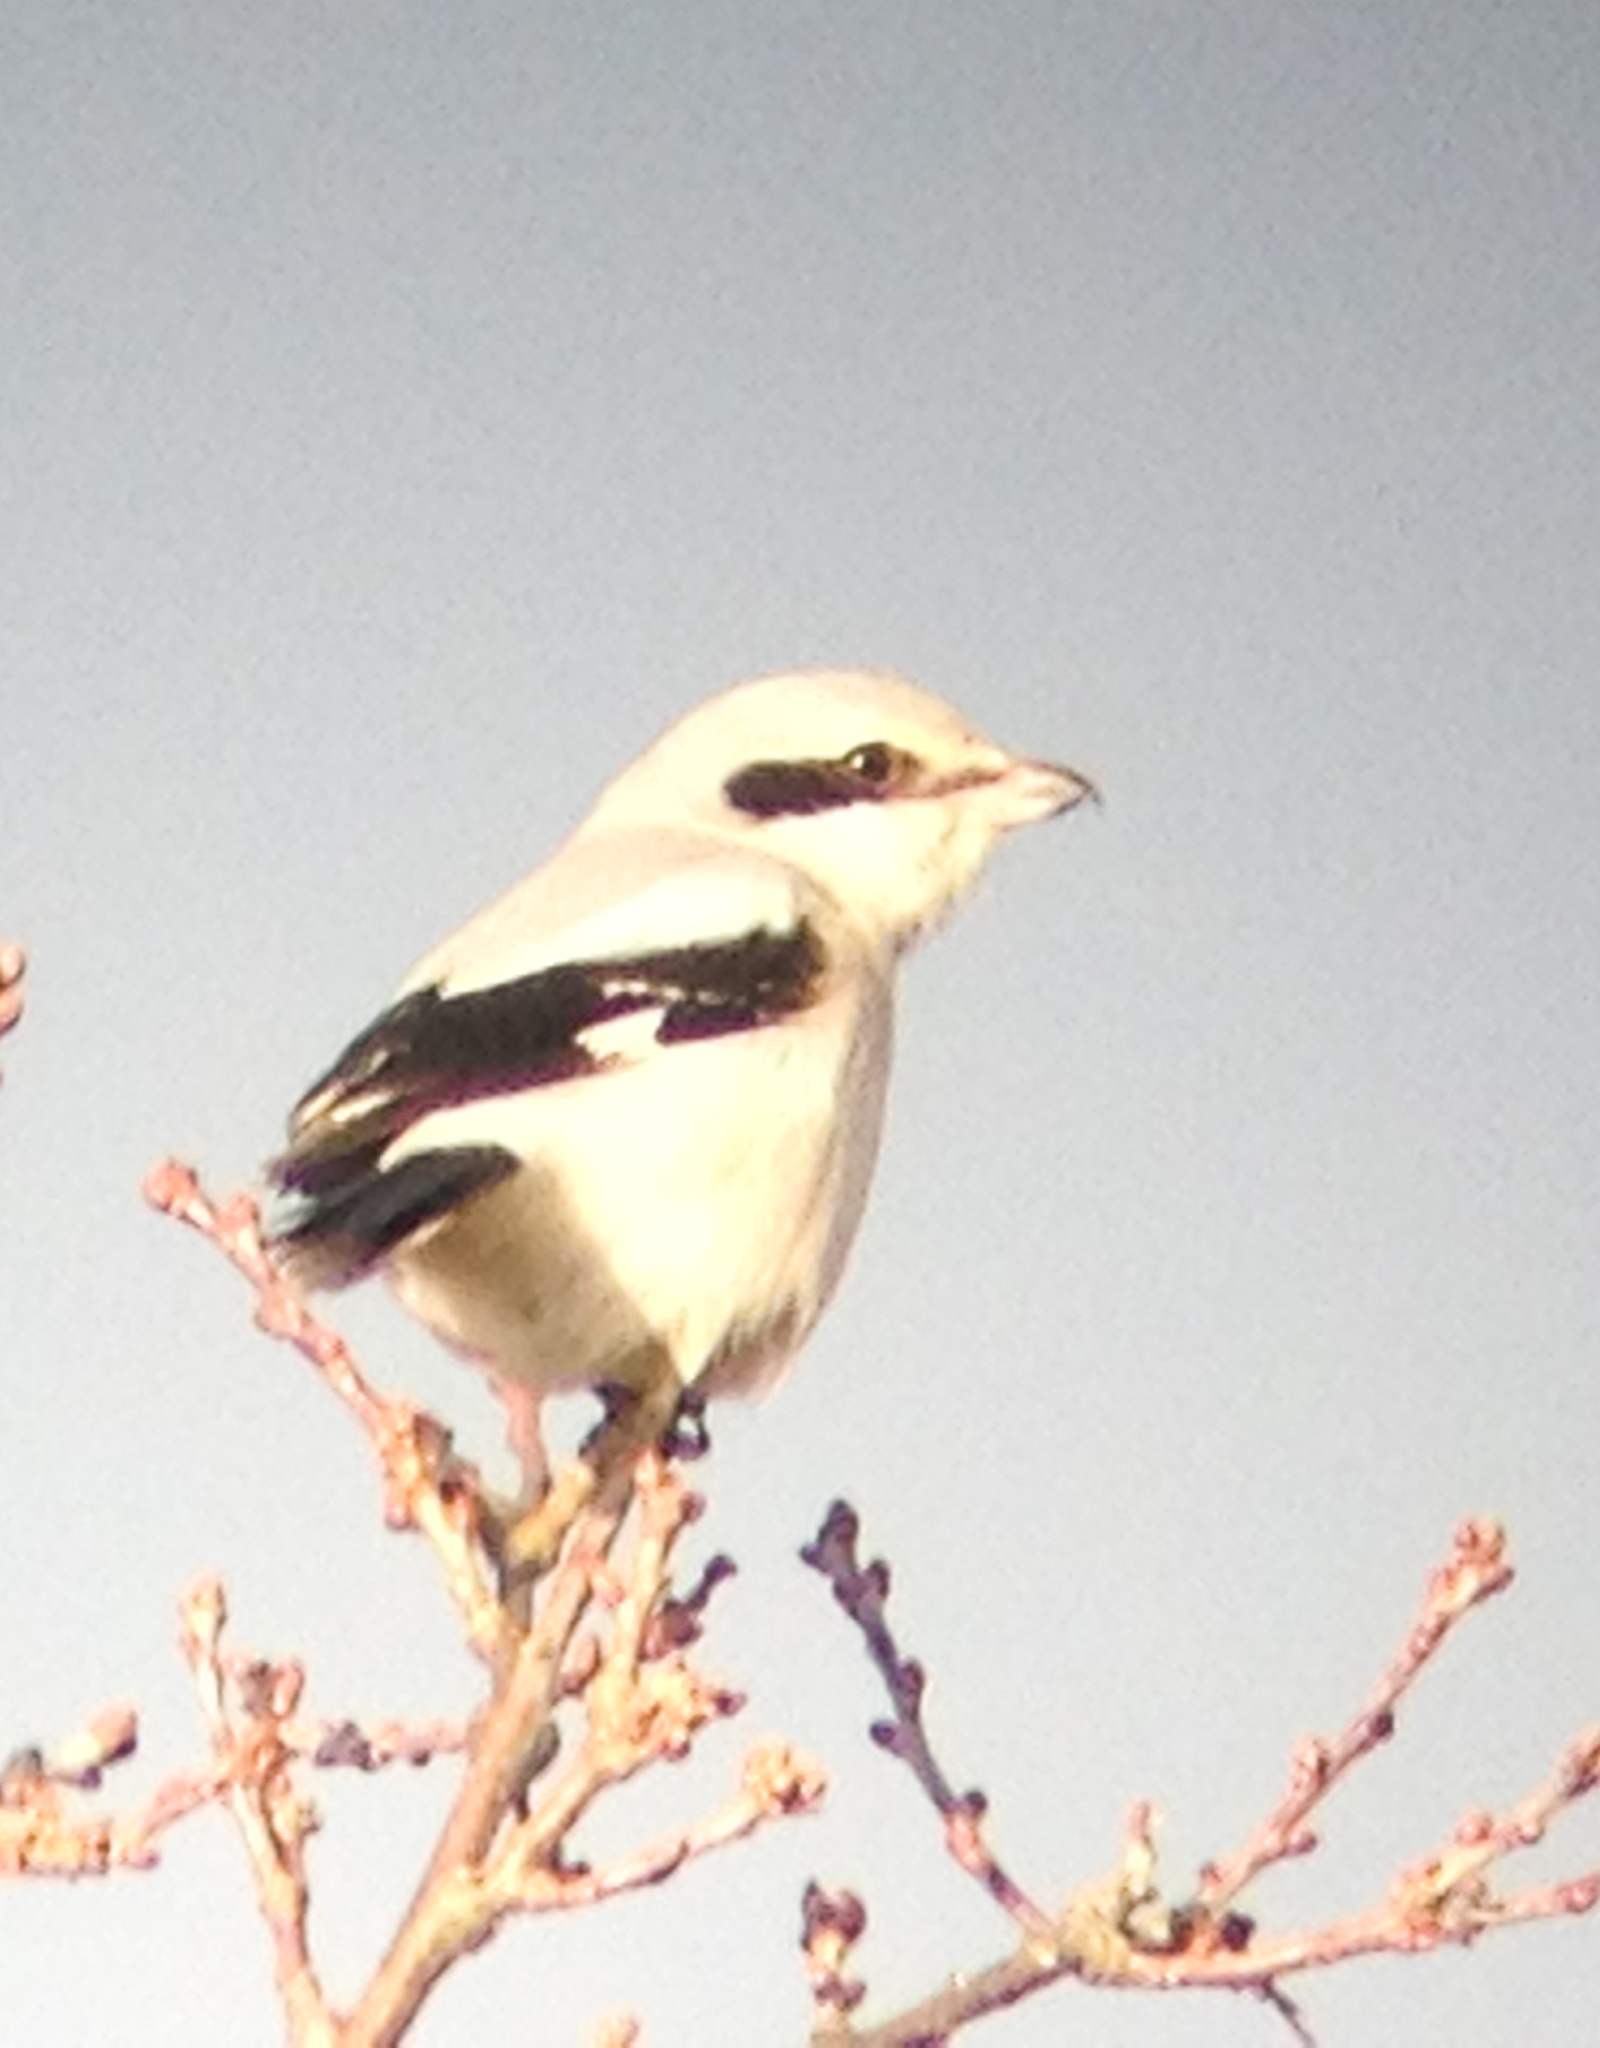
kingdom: Animalia
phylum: Chordata
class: Aves
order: Passeriformes
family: Laniidae
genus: Lanius
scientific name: Lanius excubitor
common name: Great grey shrike
